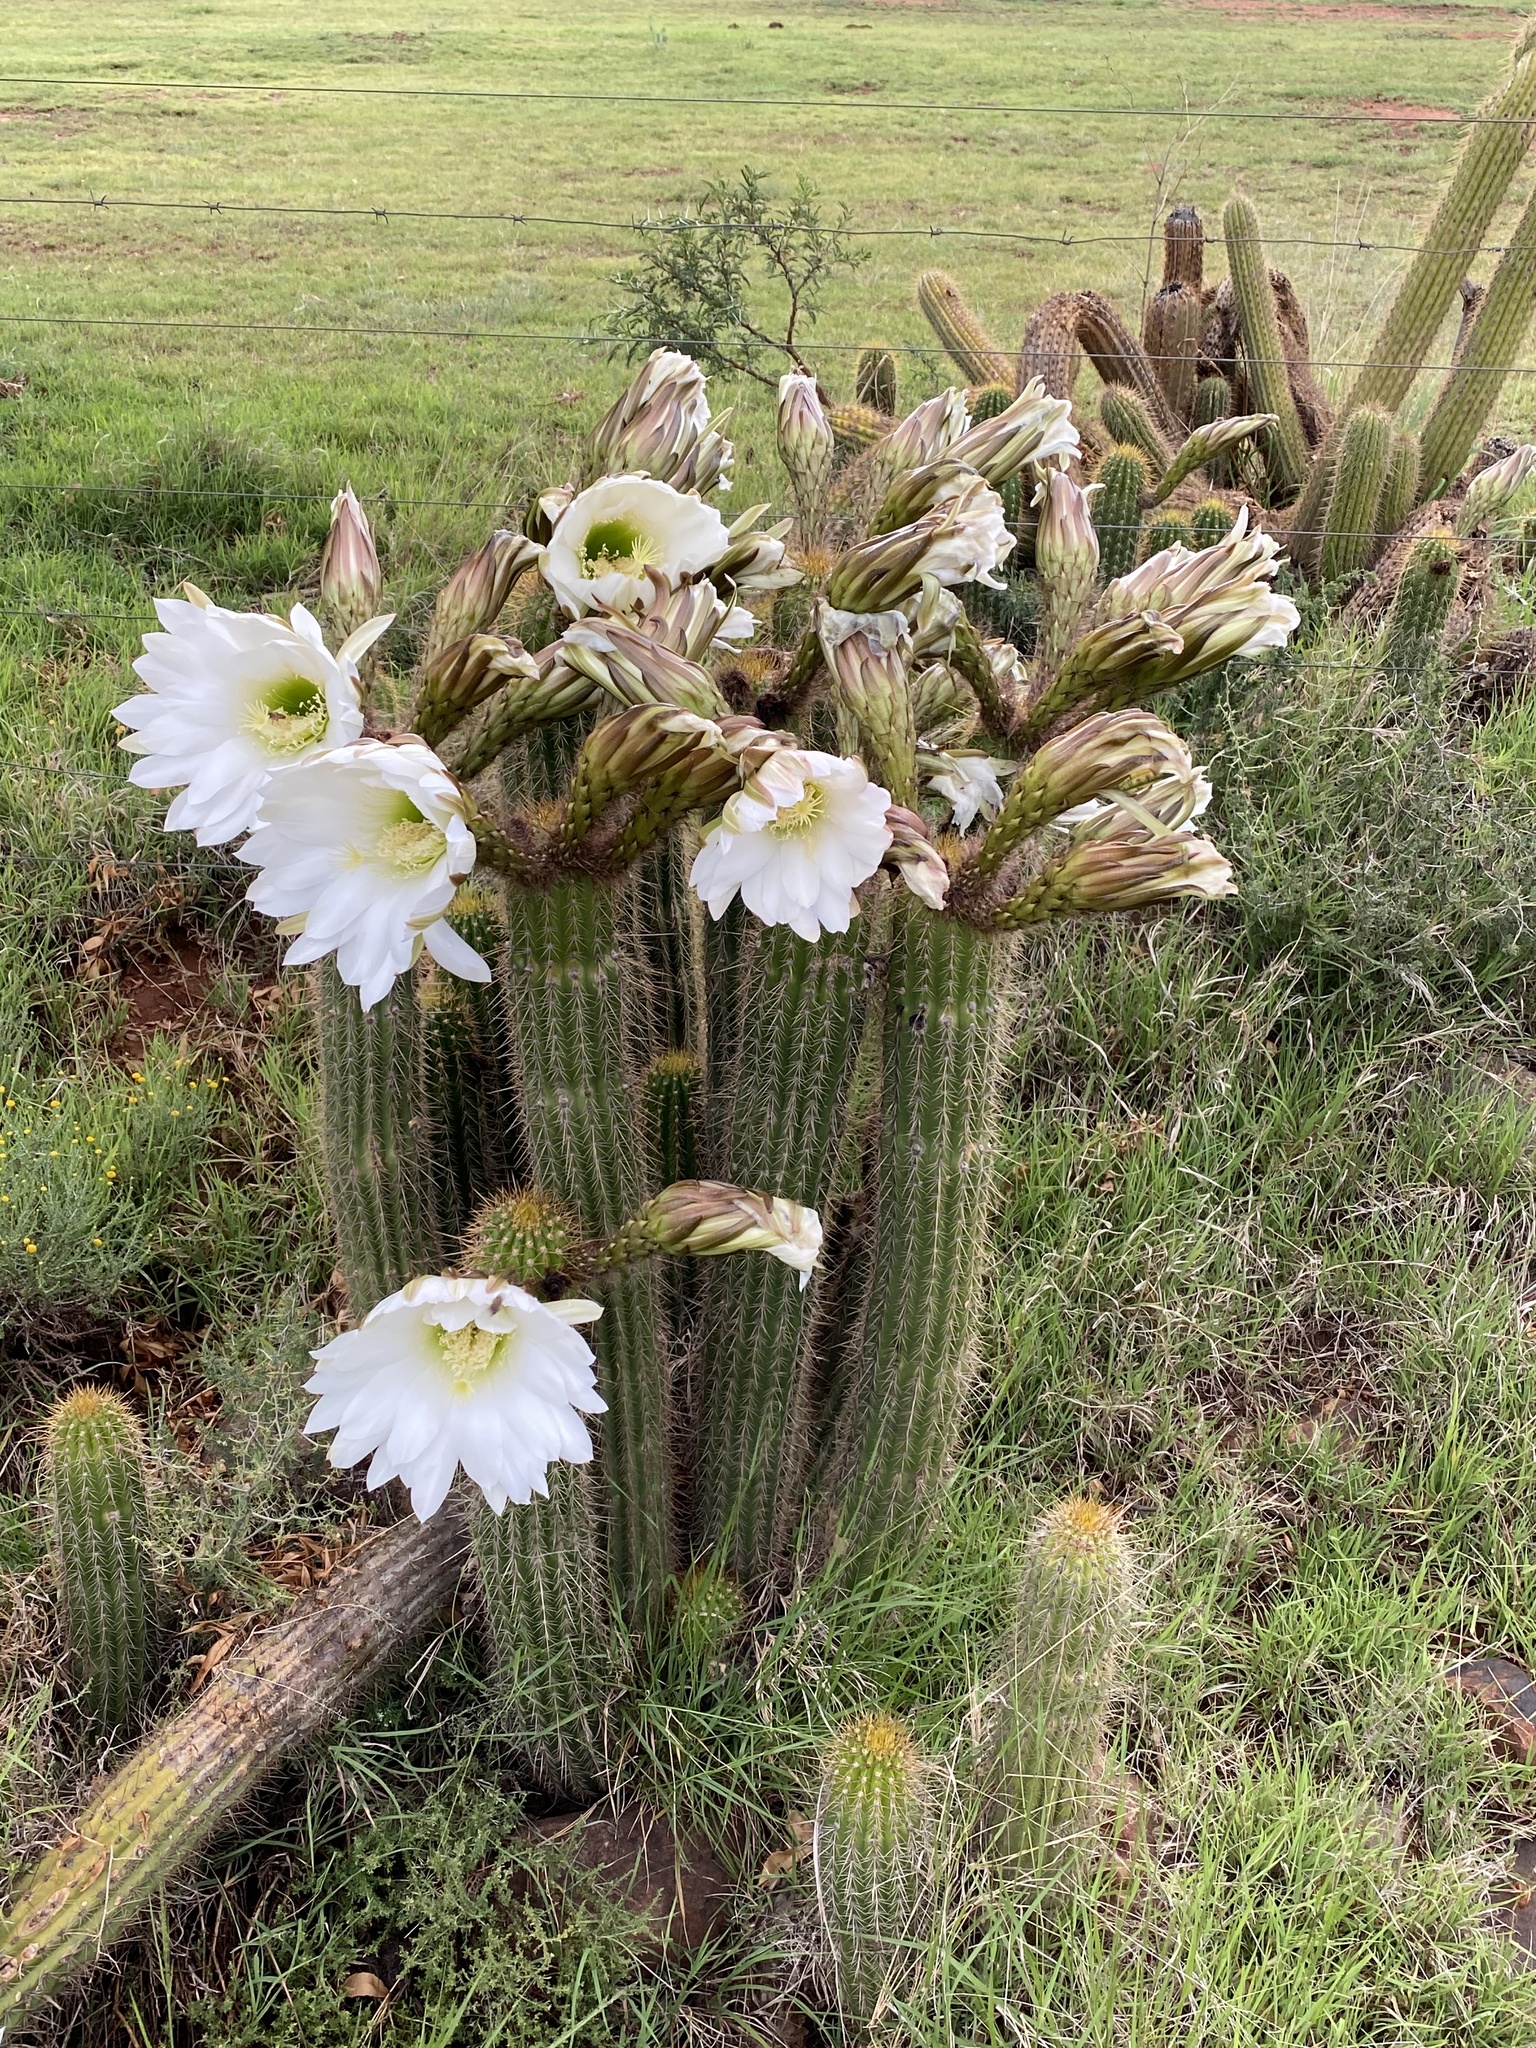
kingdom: Plantae
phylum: Tracheophyta
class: Magnoliopsida
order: Caryophyllales
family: Cactaceae
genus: Soehrensia
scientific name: Soehrensia spachiana
